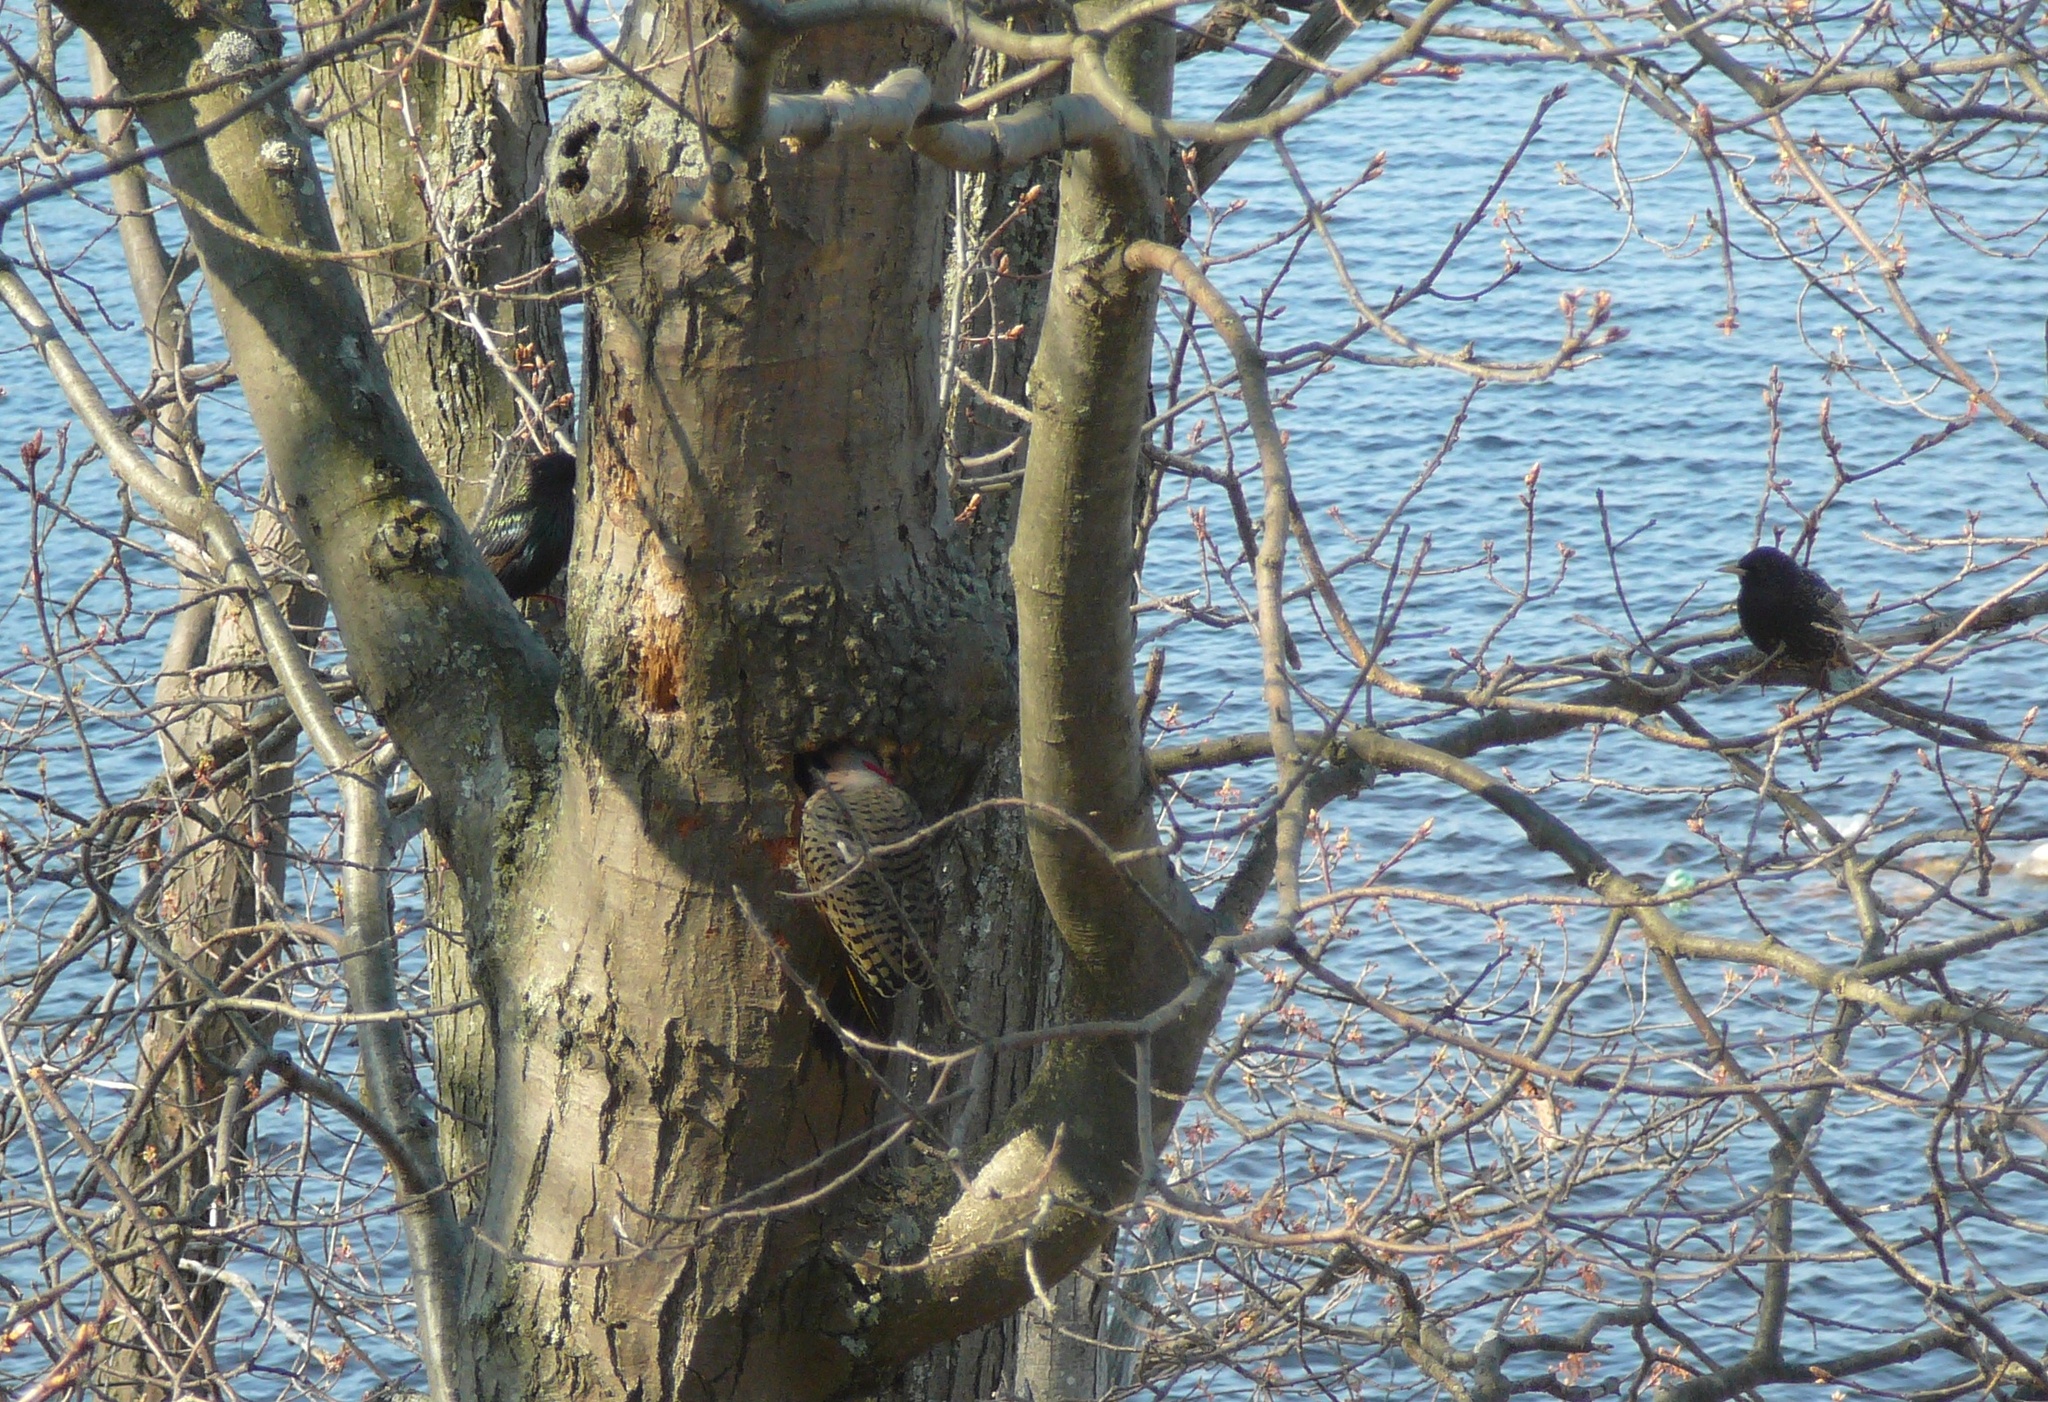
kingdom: Animalia
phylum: Chordata
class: Aves
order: Passeriformes
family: Sturnidae
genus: Sturnus
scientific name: Sturnus vulgaris
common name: Common starling
